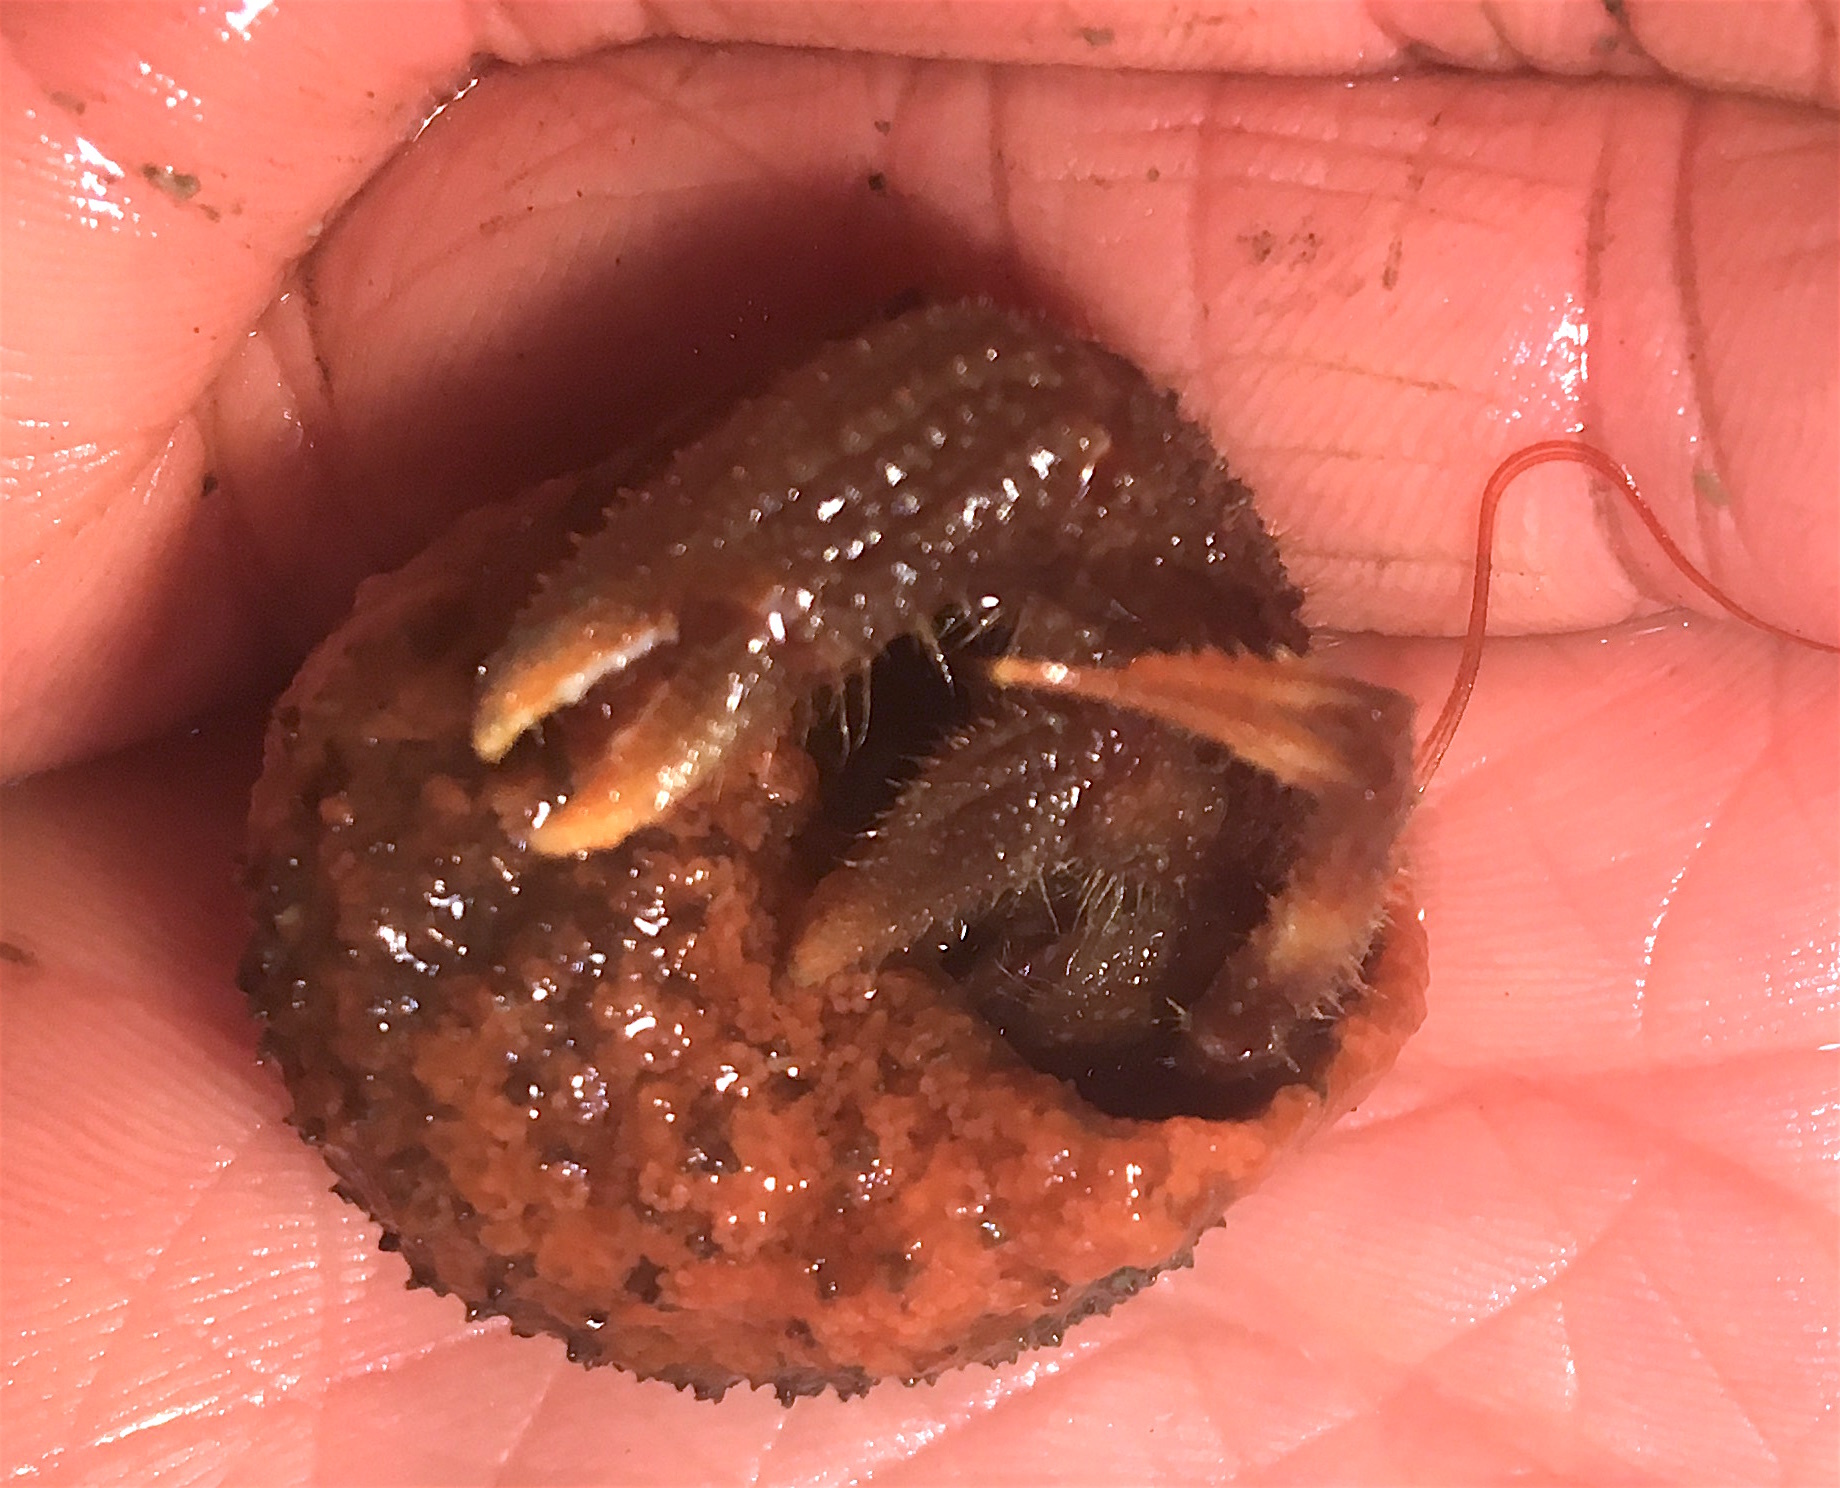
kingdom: Animalia
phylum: Arthropoda
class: Malacostraca
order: Decapoda
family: Paguridae
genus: Pagurus
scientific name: Pagurus dalli
